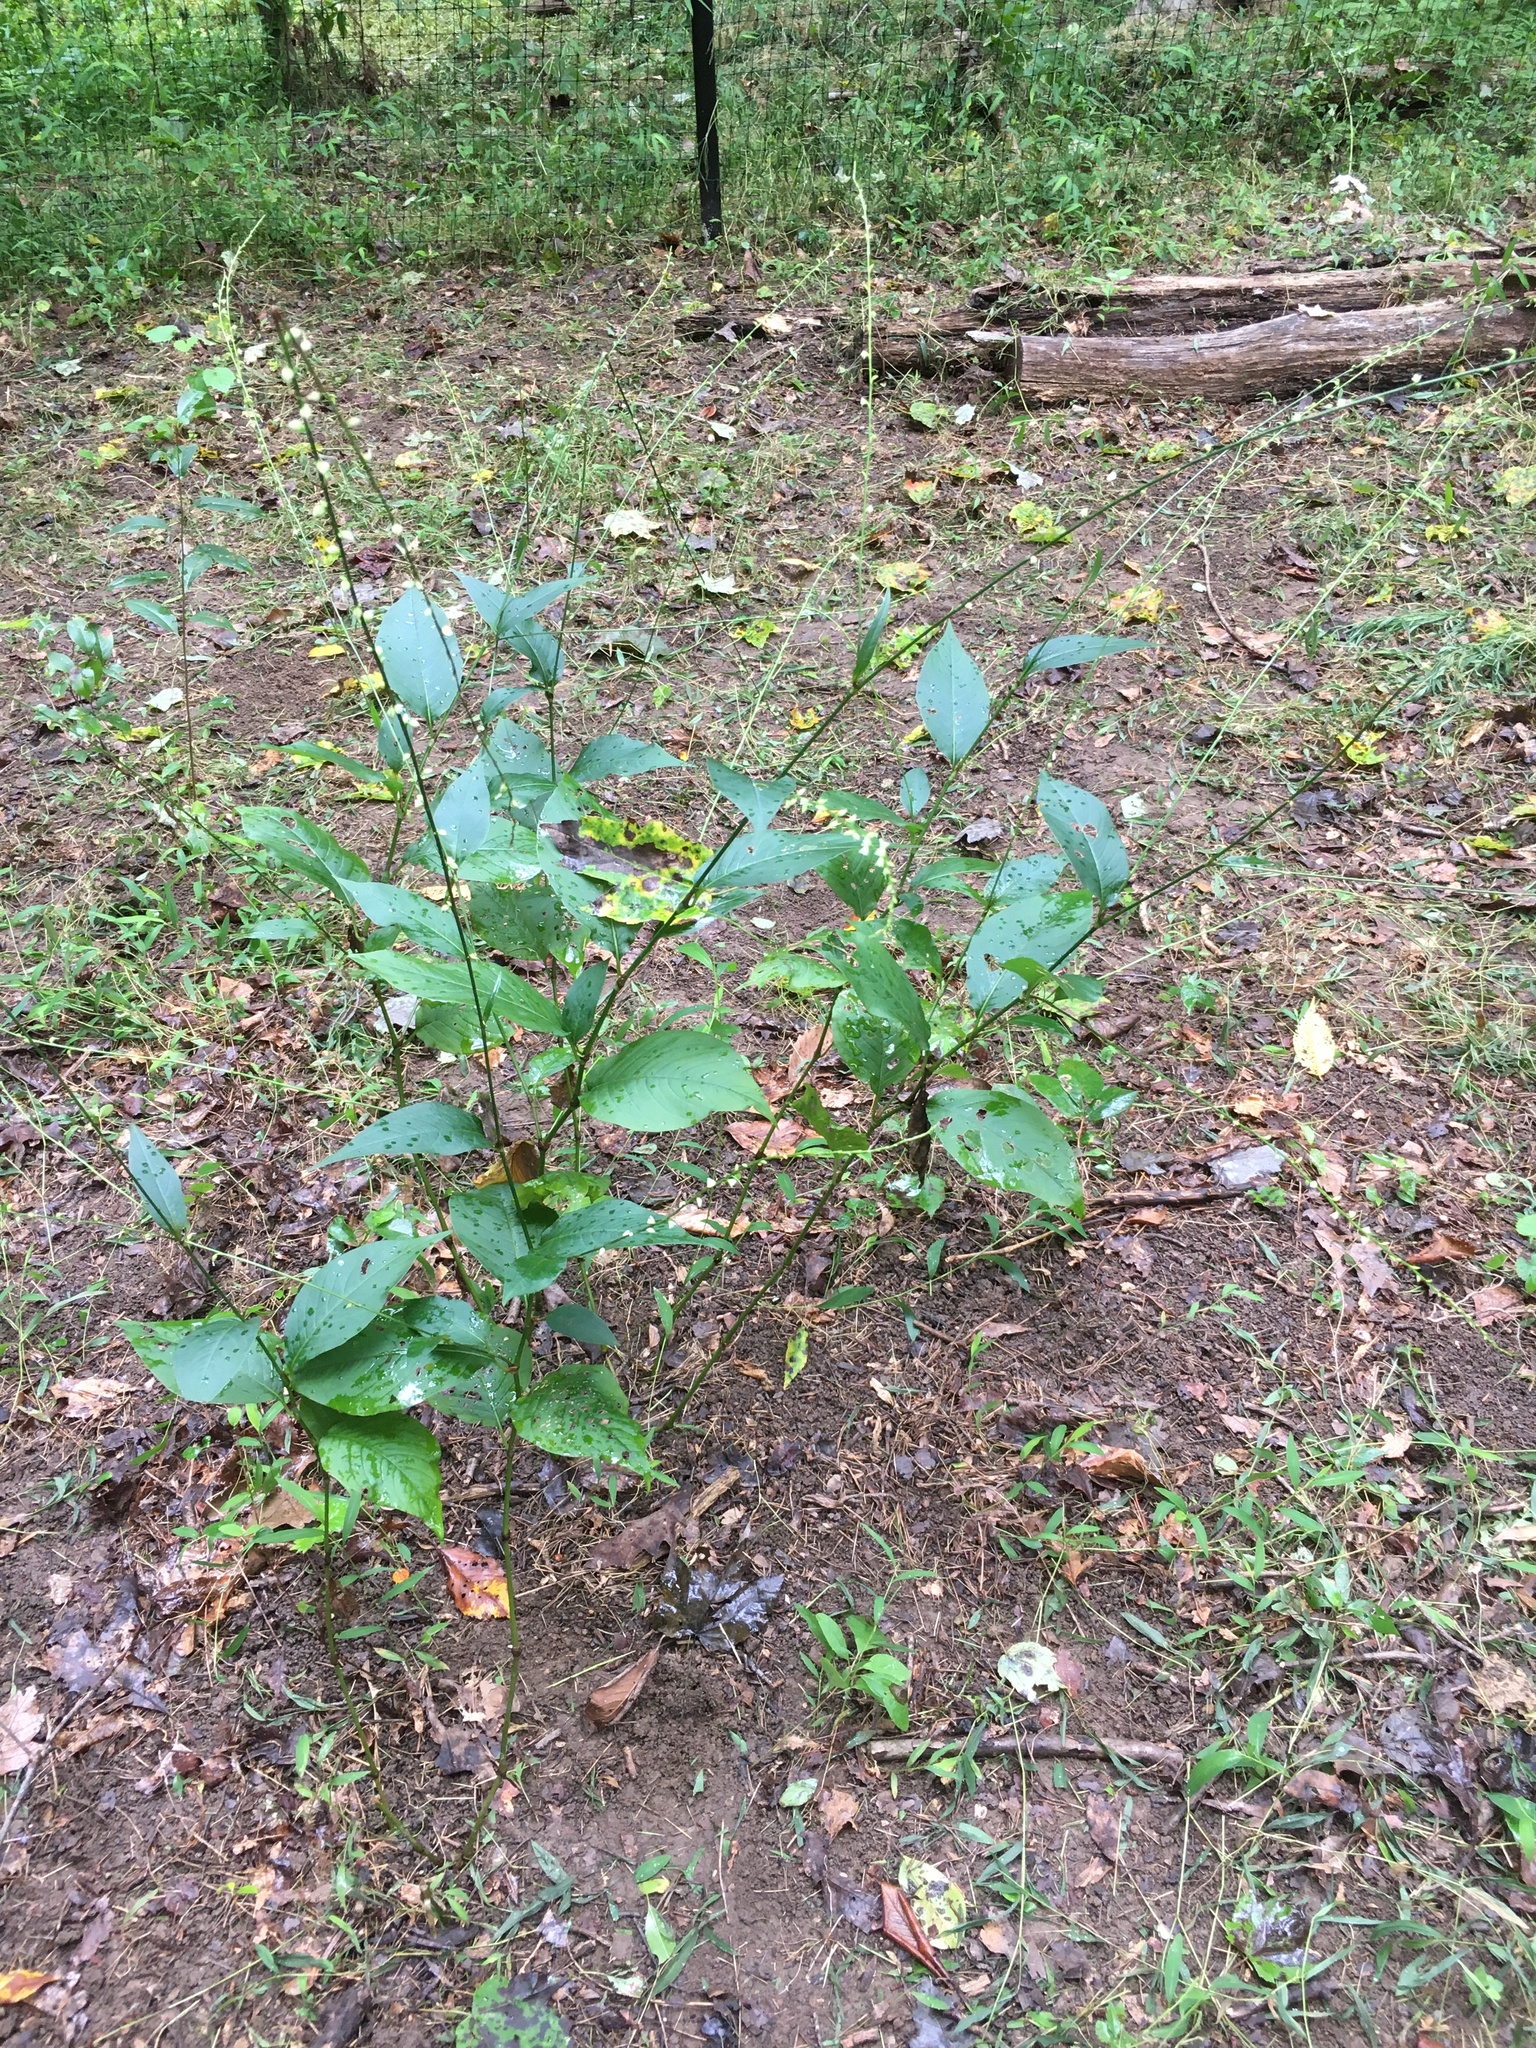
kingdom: Plantae
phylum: Tracheophyta
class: Magnoliopsida
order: Caryophyllales
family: Polygonaceae
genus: Persicaria
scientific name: Persicaria virginiana
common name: Jumpseed
